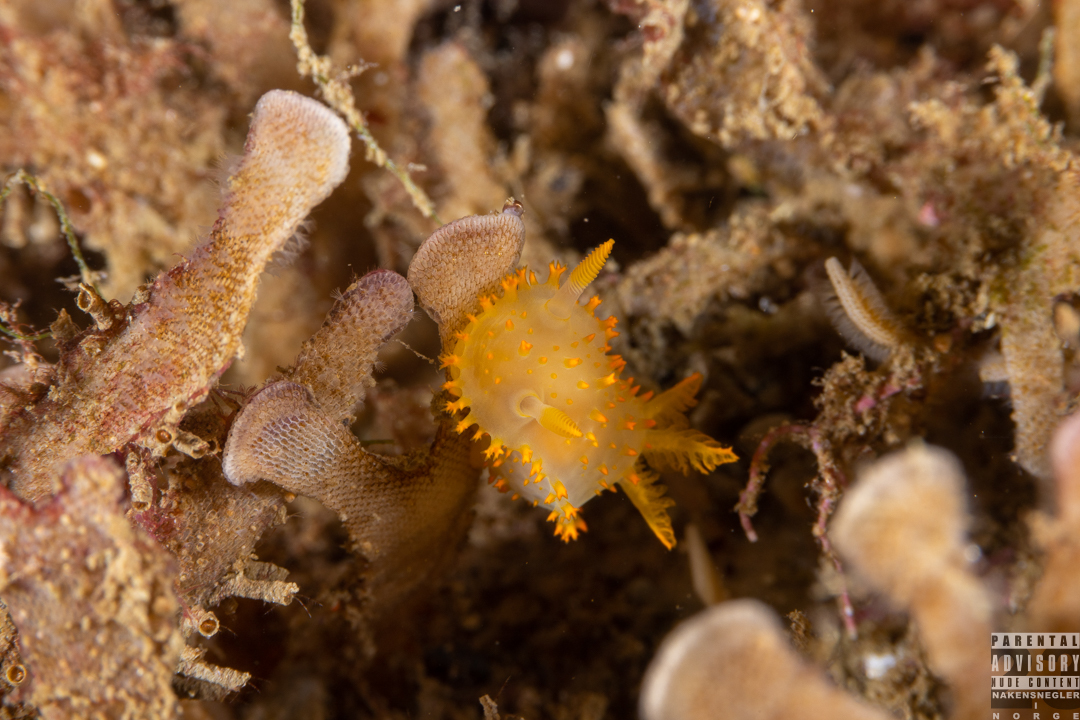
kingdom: Animalia
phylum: Mollusca
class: Gastropoda
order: Nudibranchia
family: Polyceridae
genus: Crimora
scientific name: Crimora papillata
